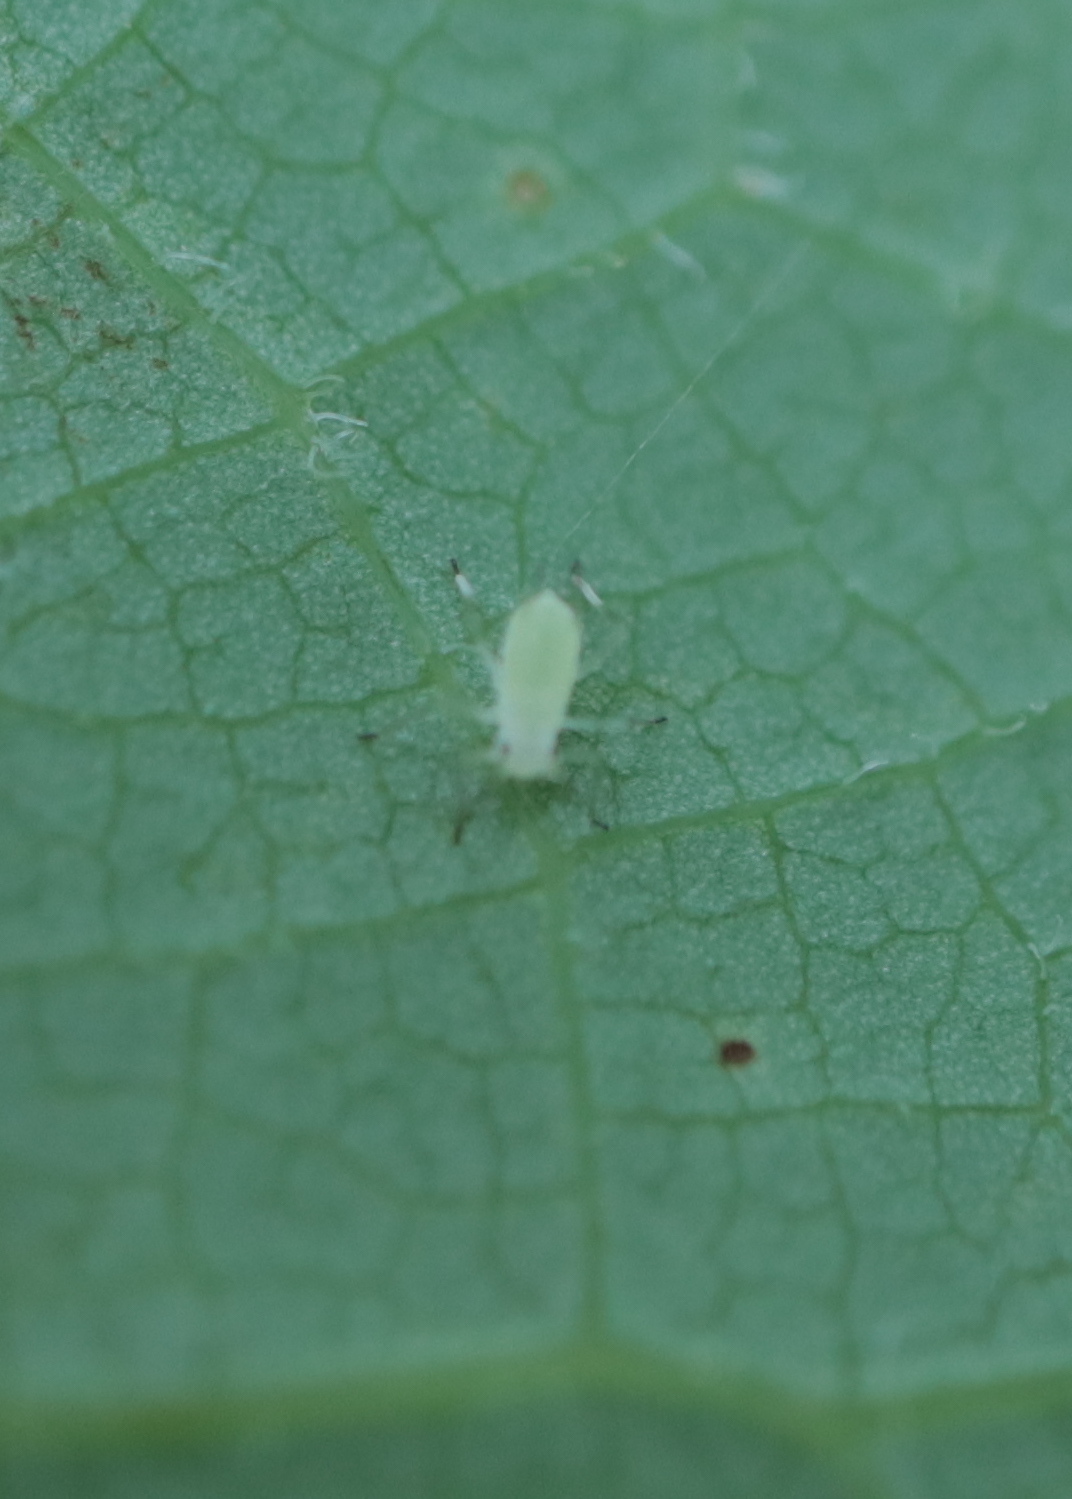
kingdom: Animalia
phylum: Arthropoda
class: Insecta
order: Hemiptera
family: Aphididae
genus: Illinoia
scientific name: Illinoia liriodendri
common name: Tuliptree aphid
